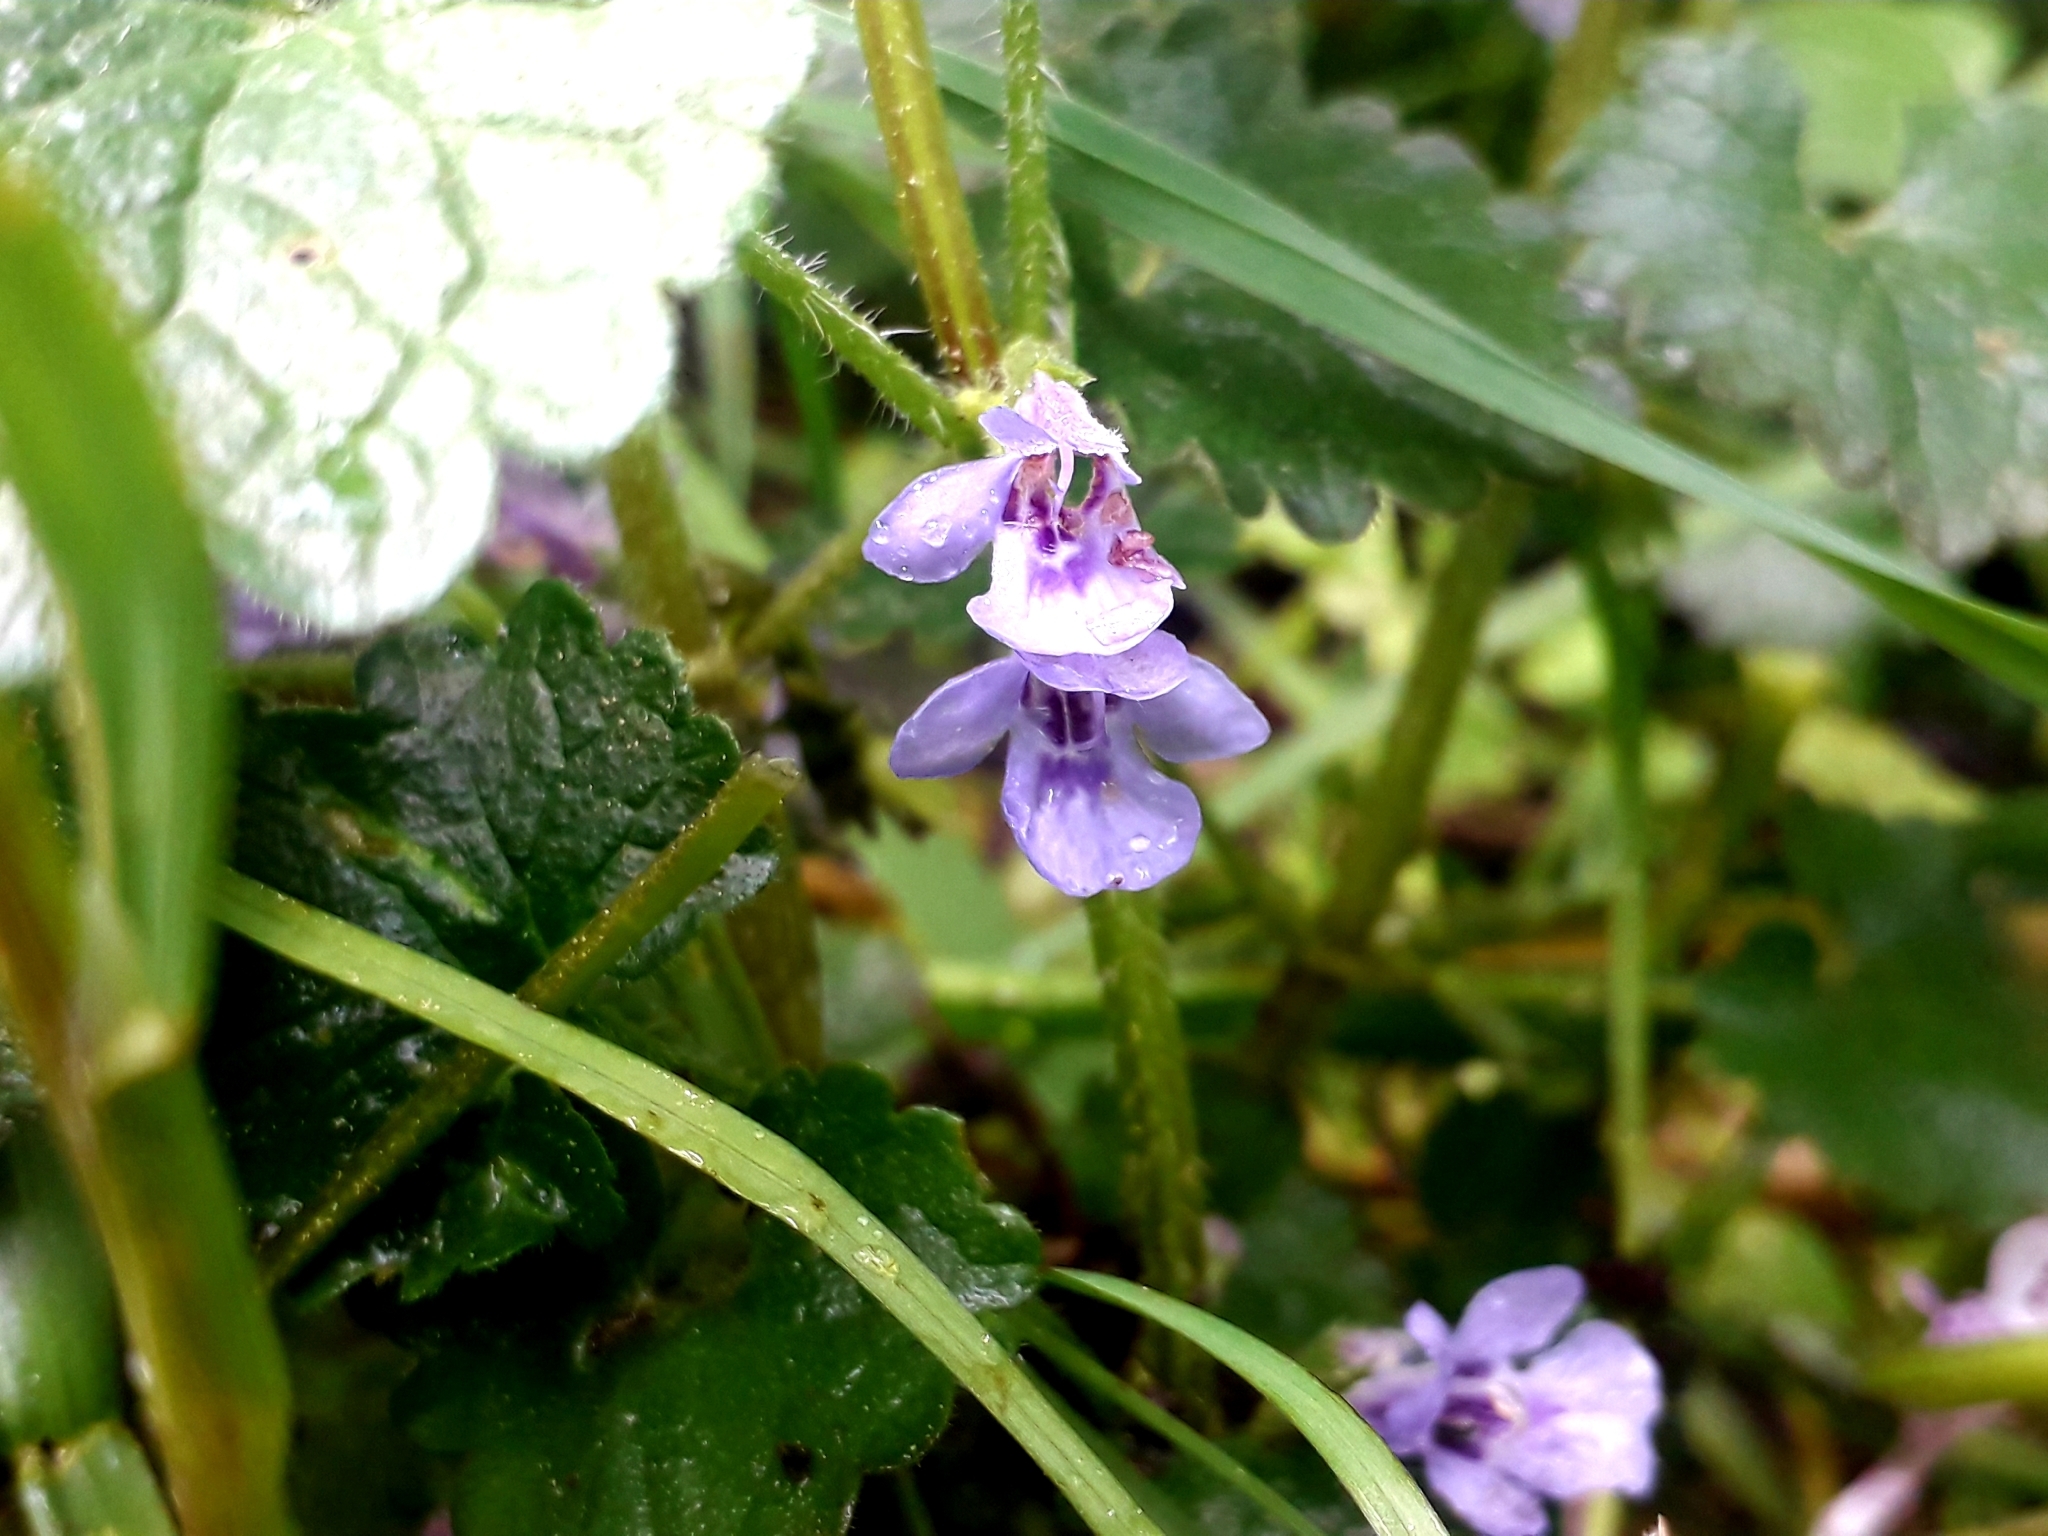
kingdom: Plantae
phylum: Tracheophyta
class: Magnoliopsida
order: Lamiales
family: Lamiaceae
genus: Glechoma
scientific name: Glechoma hederacea
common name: Ground ivy
